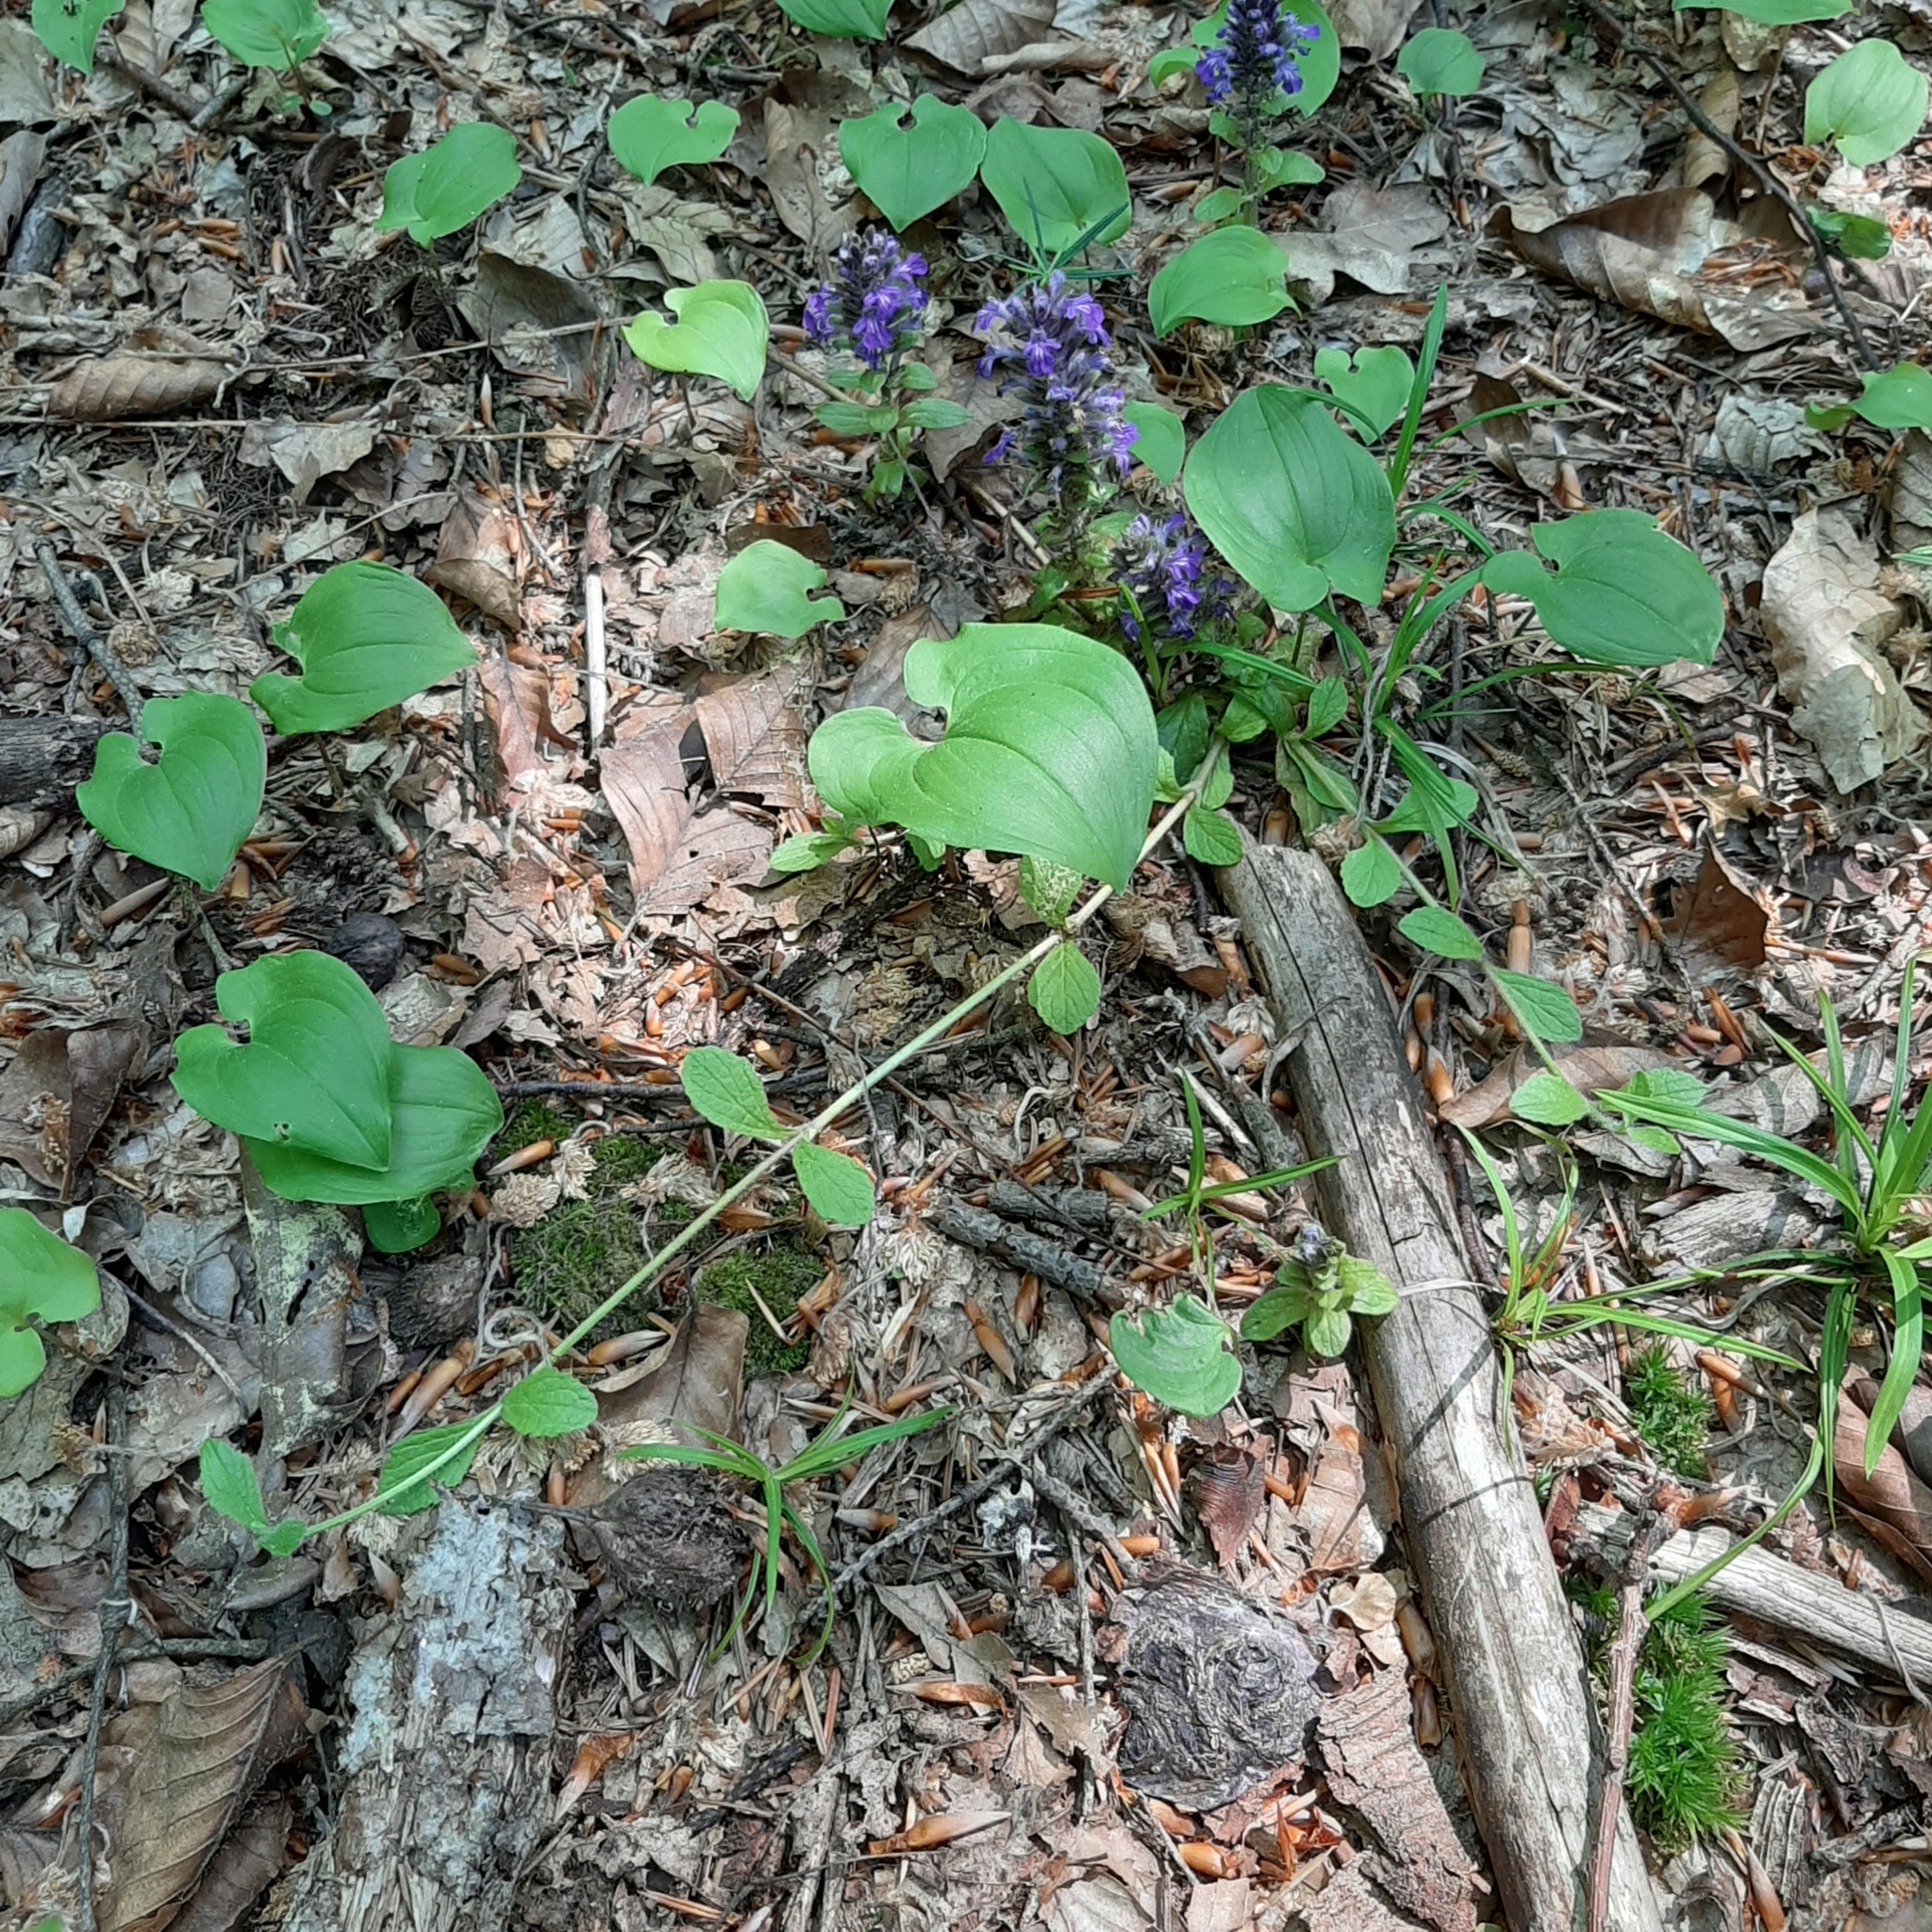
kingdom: Plantae
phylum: Tracheophyta
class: Magnoliopsida
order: Lamiales
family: Lamiaceae
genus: Ajuga
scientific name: Ajuga reptans
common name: Bugle
